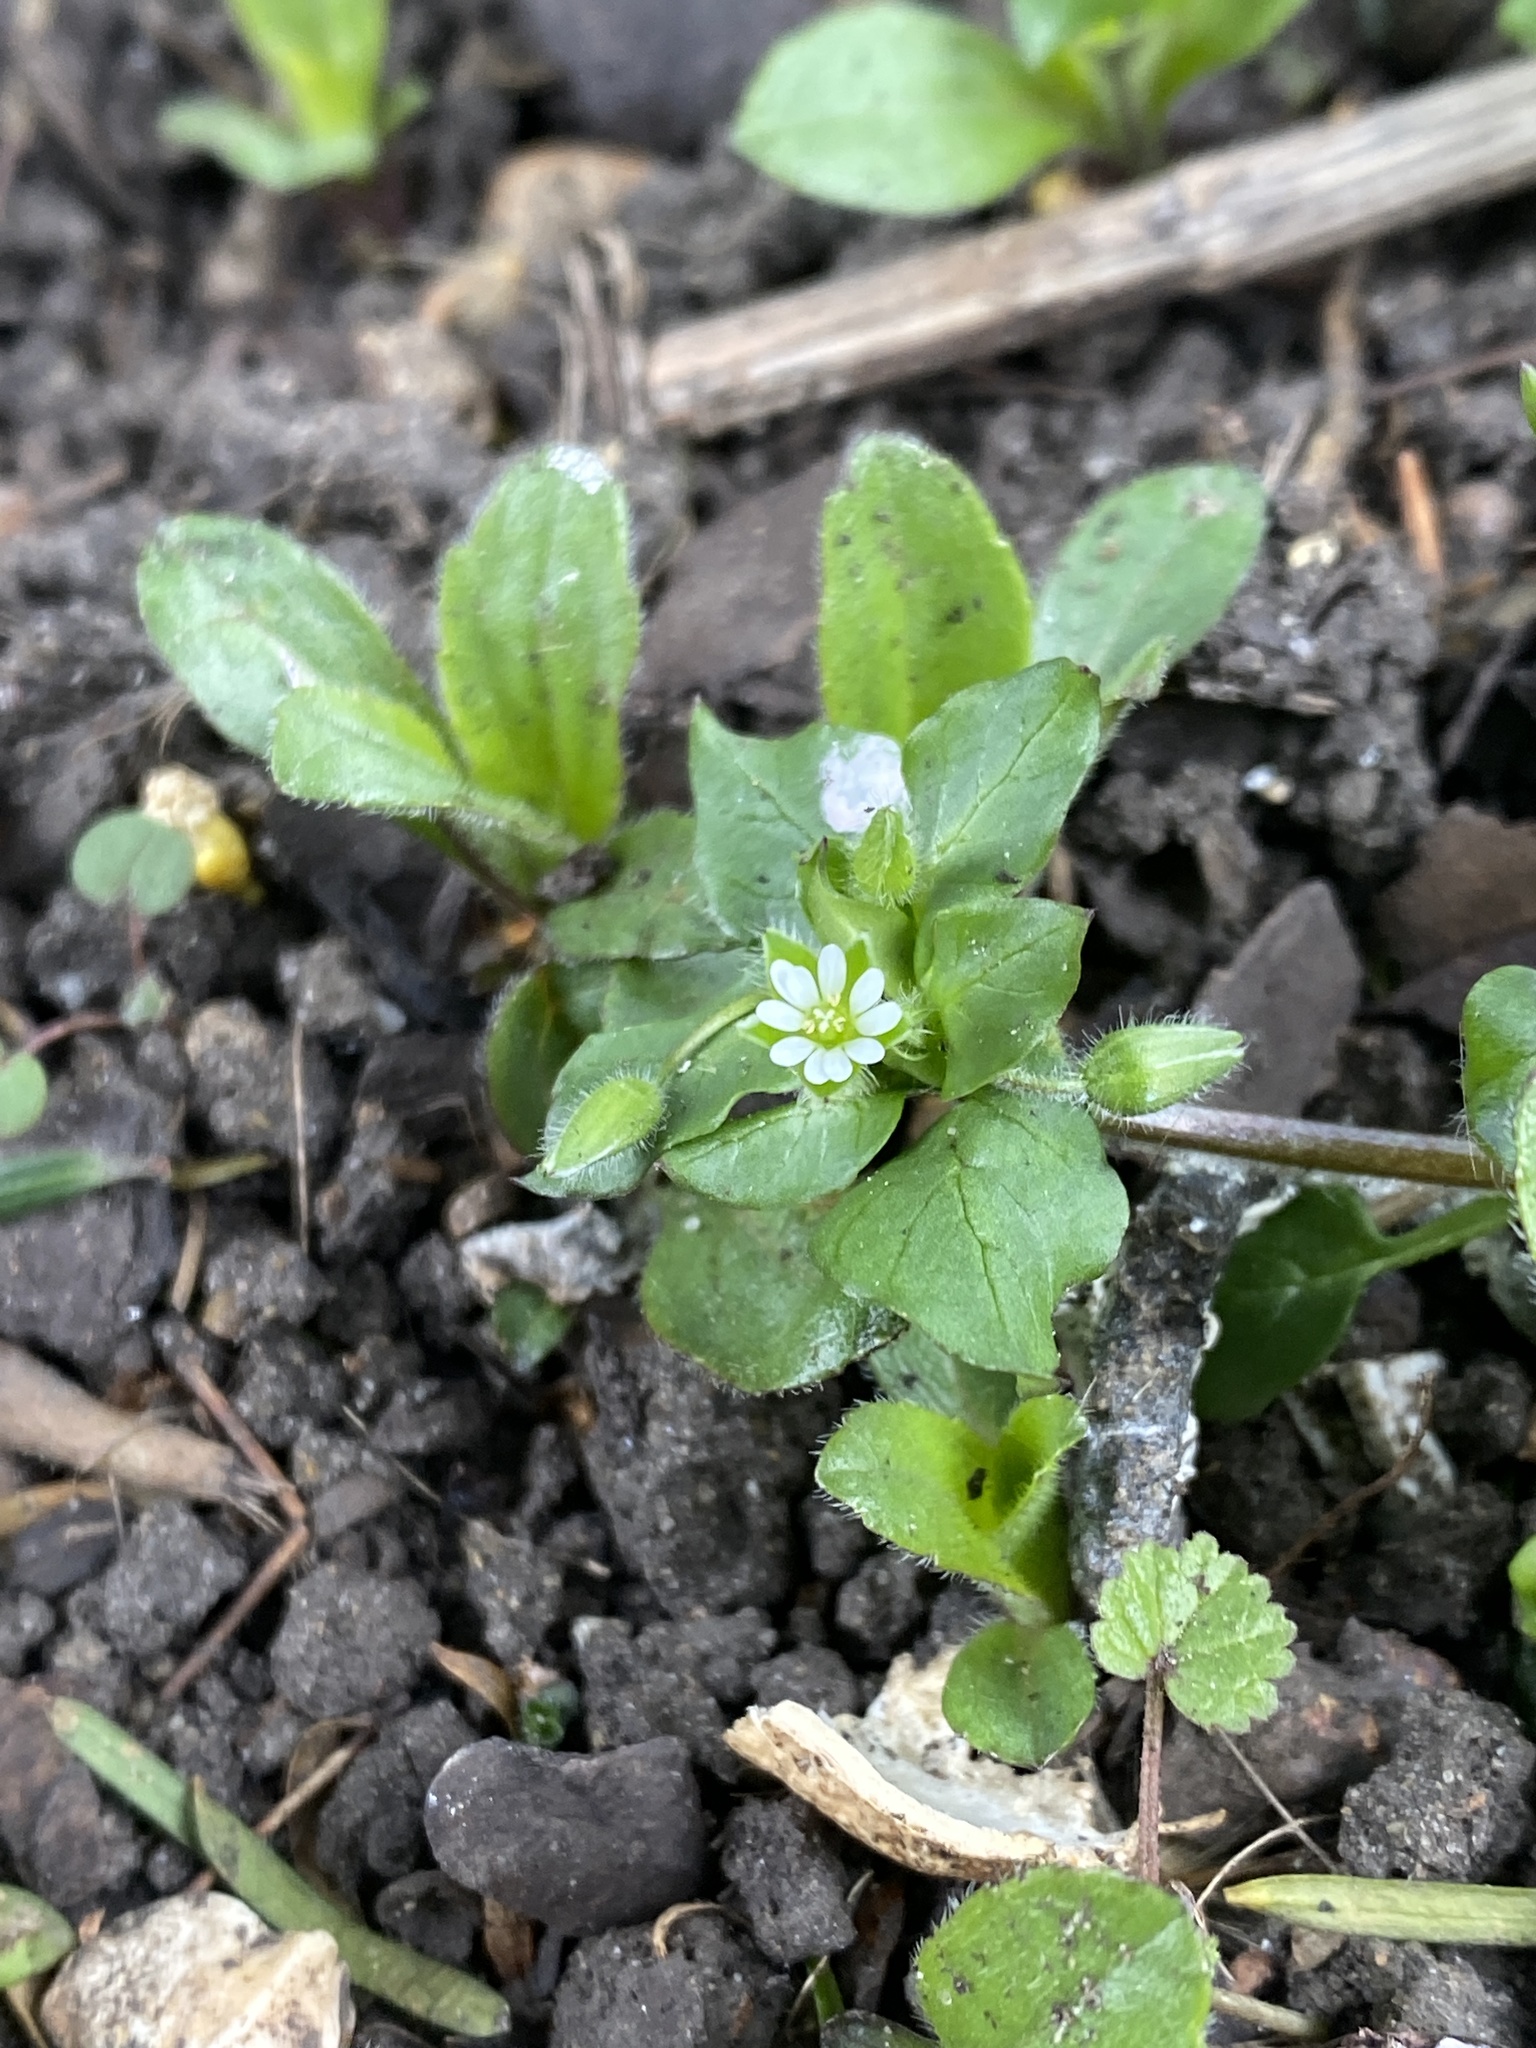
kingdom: Plantae
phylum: Tracheophyta
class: Magnoliopsida
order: Caryophyllales
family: Caryophyllaceae
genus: Stellaria
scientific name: Stellaria media
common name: Common chickweed
